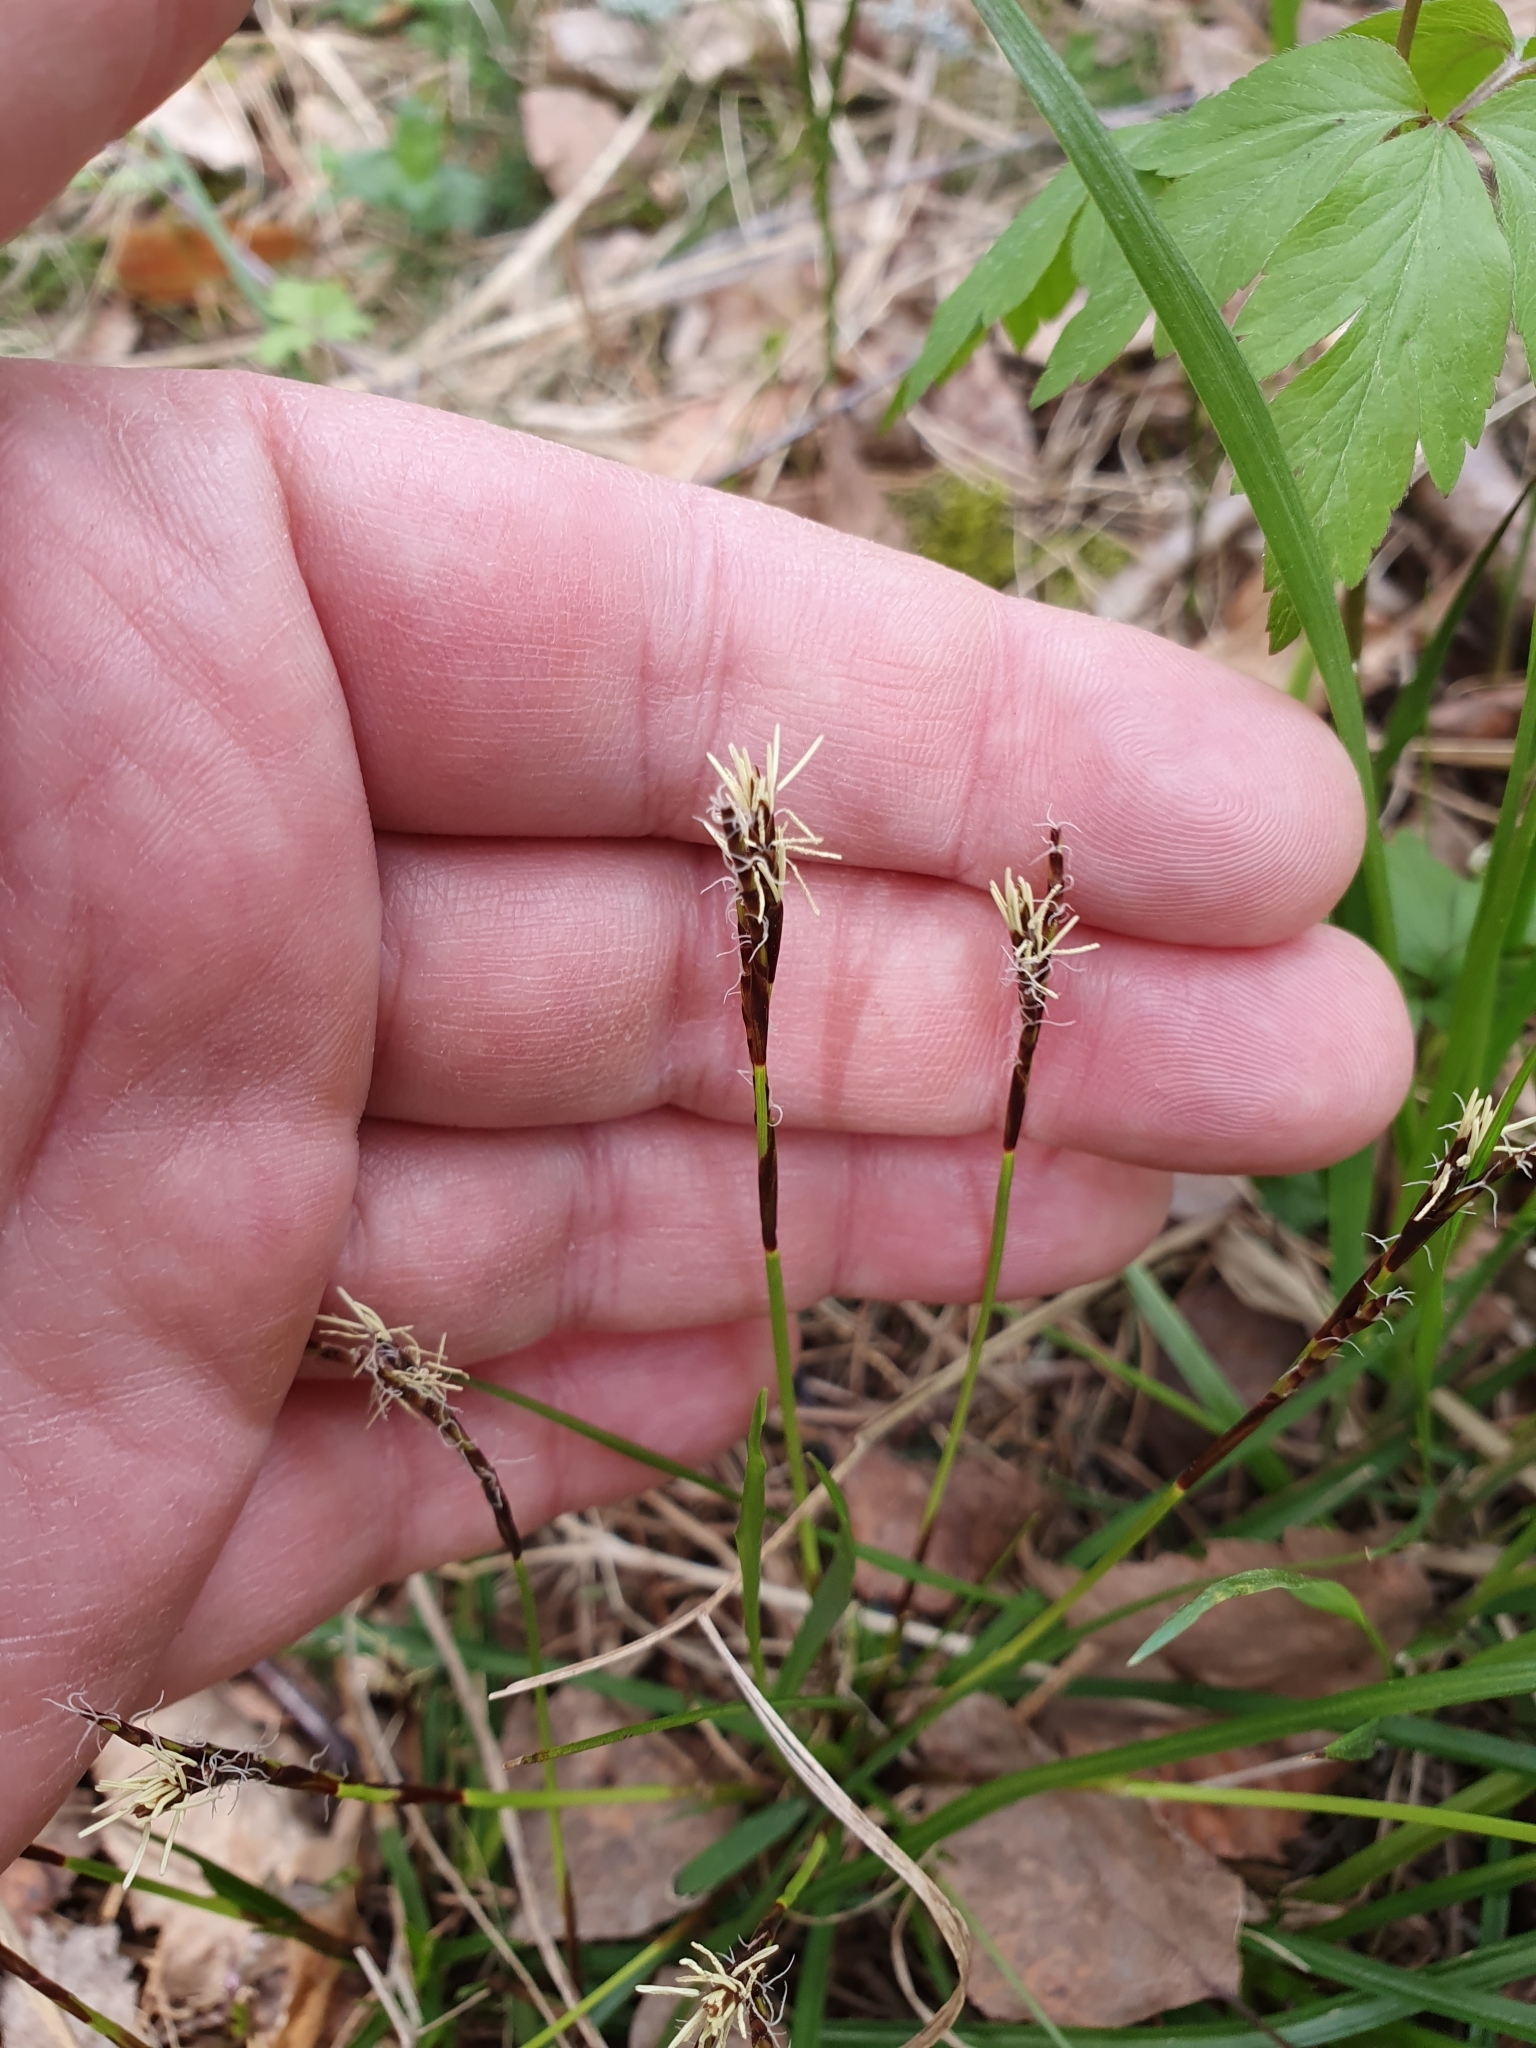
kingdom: Plantae
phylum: Tracheophyta
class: Liliopsida
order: Poales
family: Cyperaceae
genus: Carex
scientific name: Carex digitata
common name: Fingered sedge
